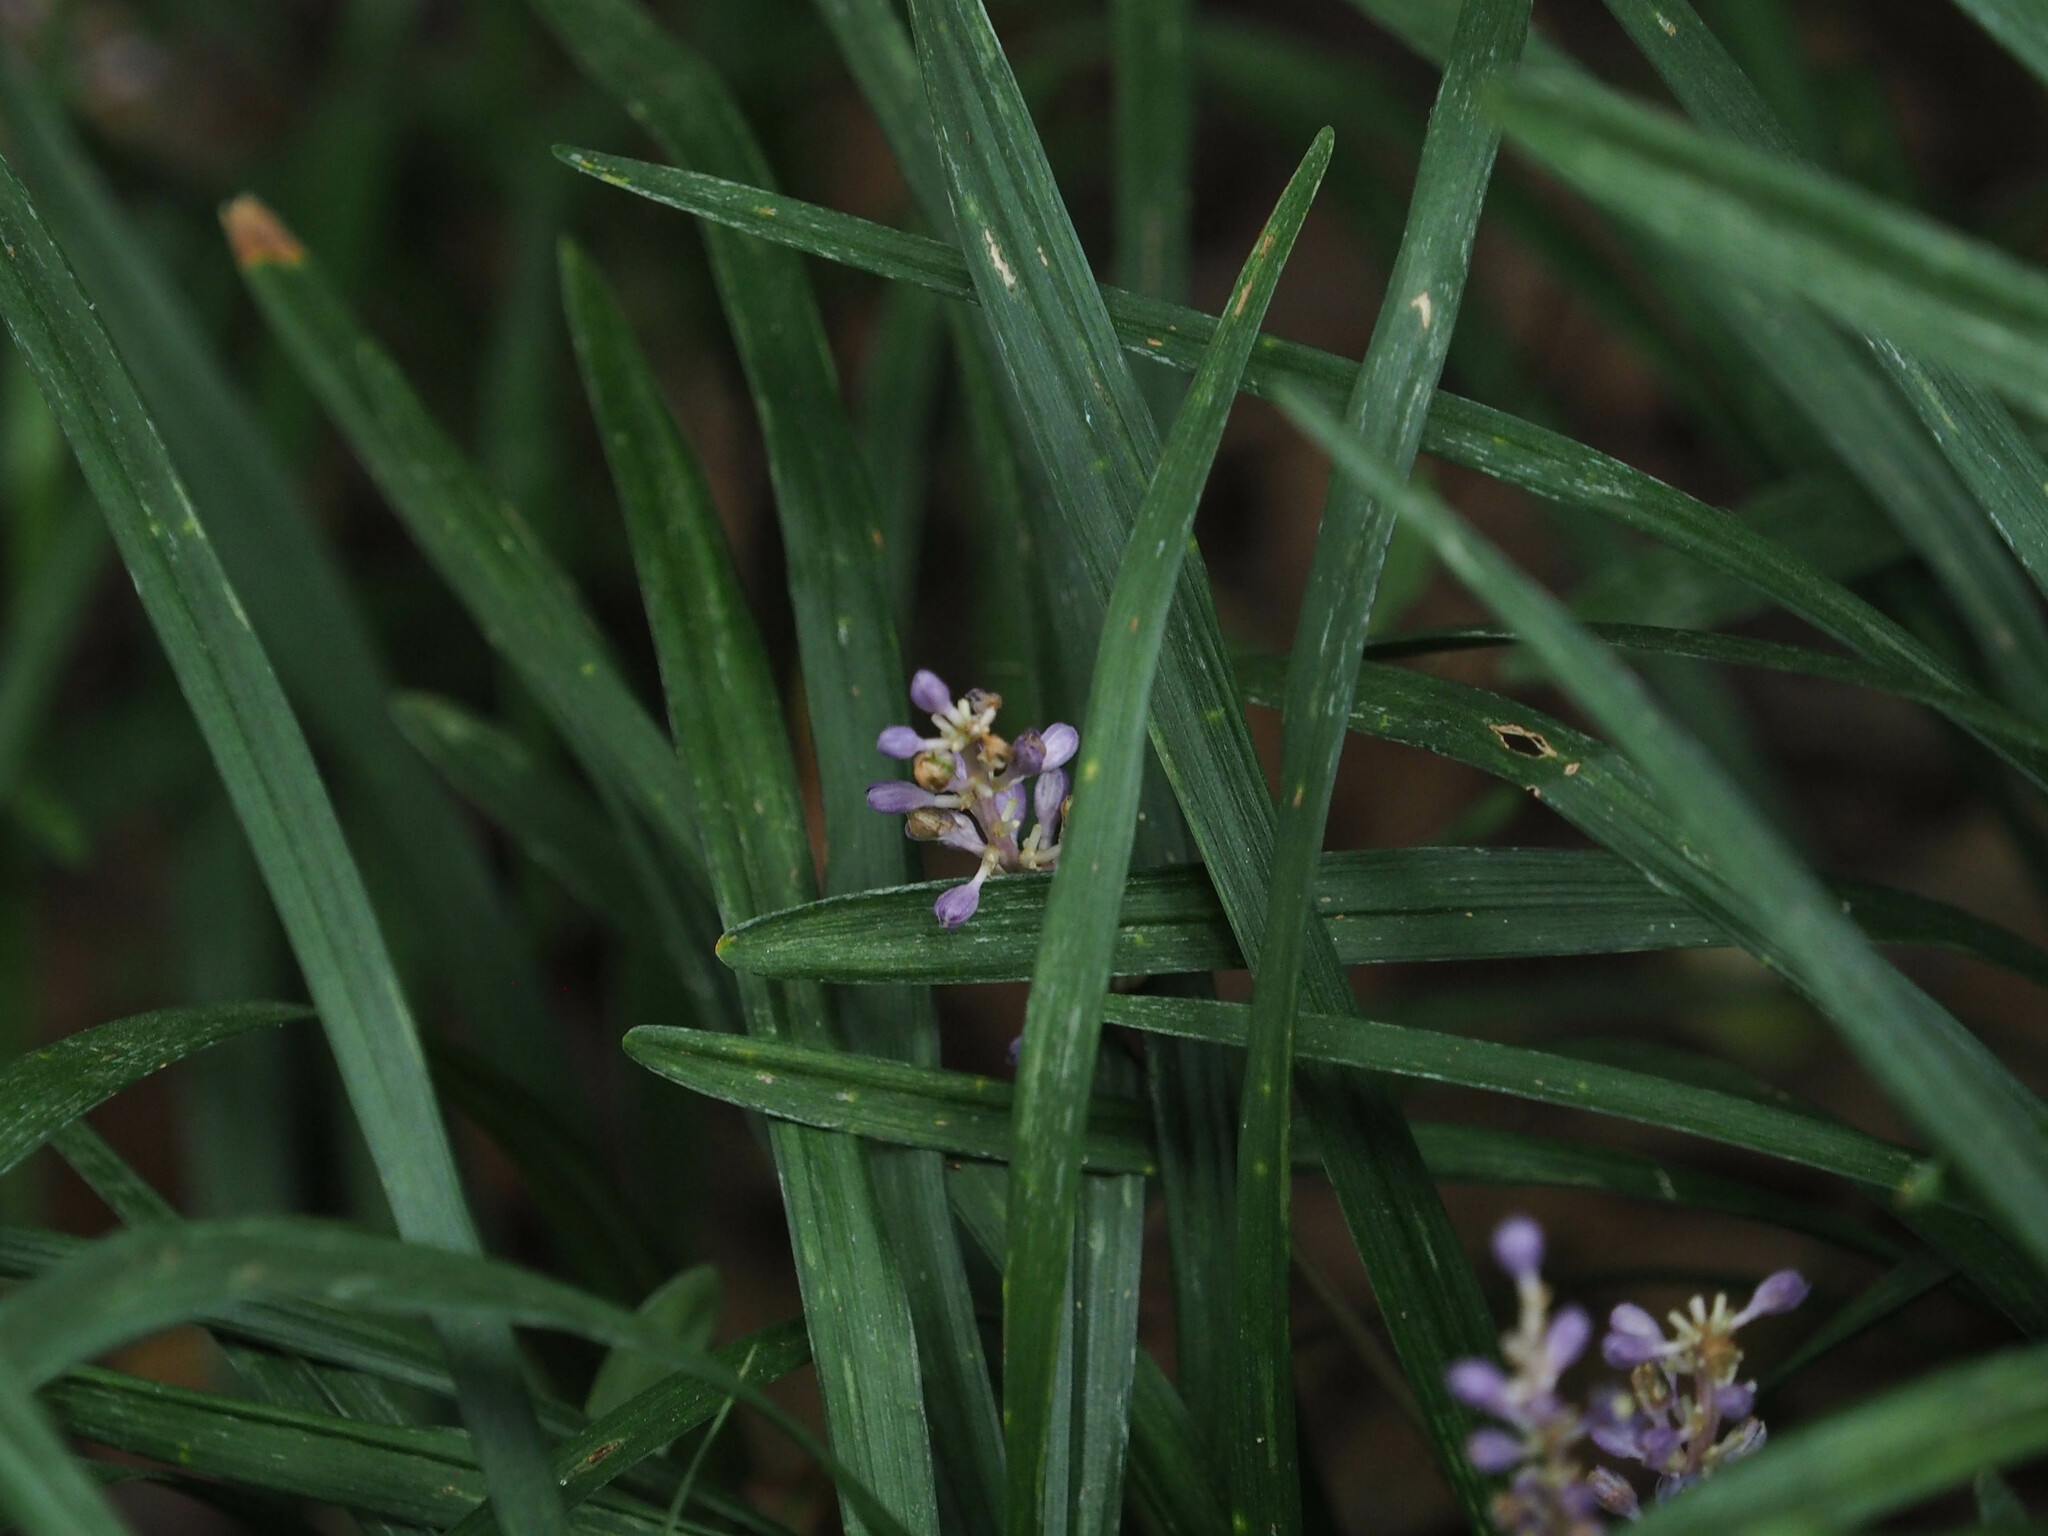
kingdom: Plantae
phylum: Tracheophyta
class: Liliopsida
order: Asparagales
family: Asparagaceae
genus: Liriope
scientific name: Liriope spicata
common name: Creeping liriope
